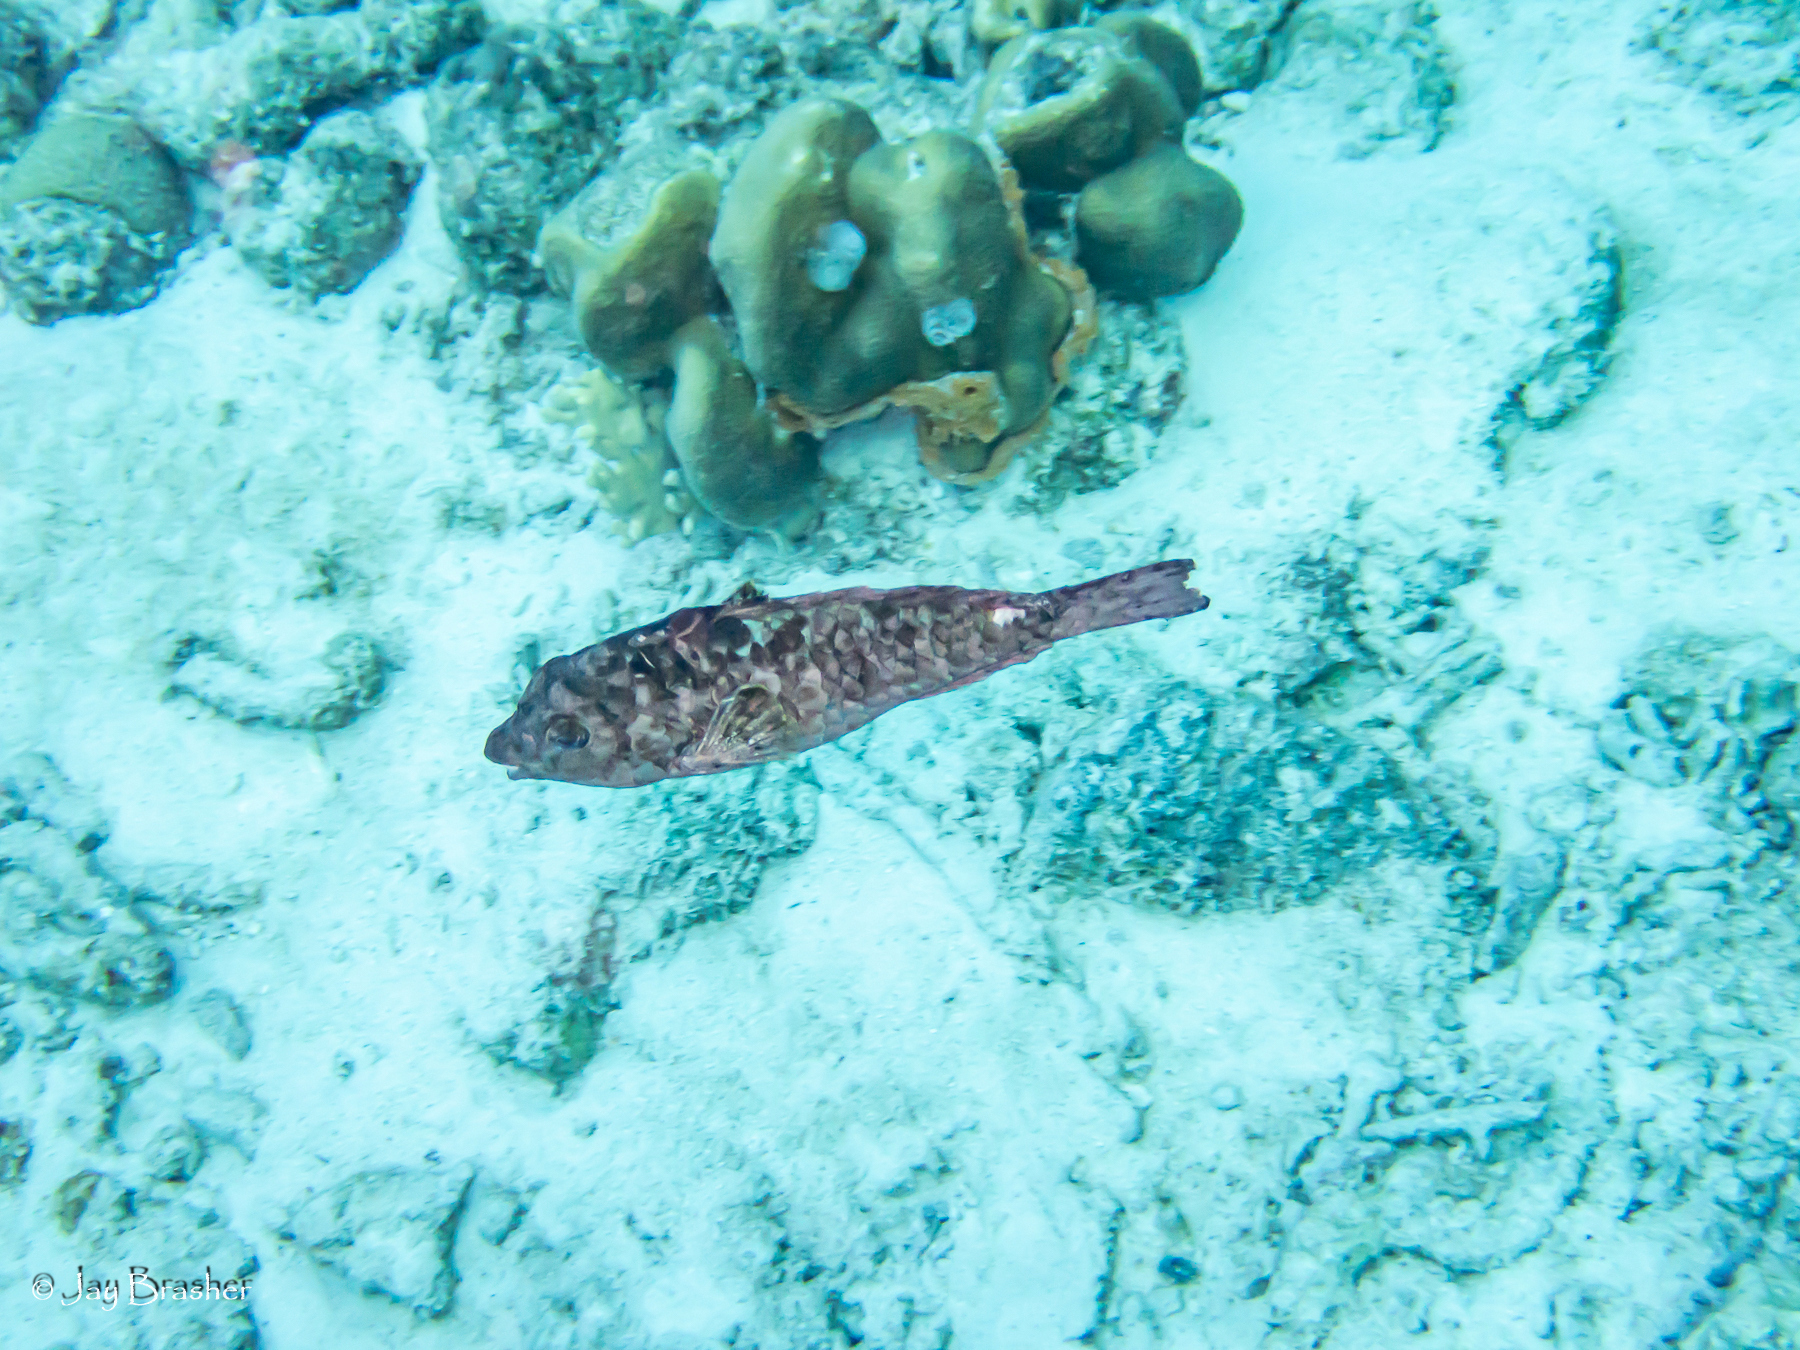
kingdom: Animalia
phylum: Chordata
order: Perciformes
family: Scaridae
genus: Sparisoma
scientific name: Sparisoma aurofrenatum
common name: Redband parrotfish
